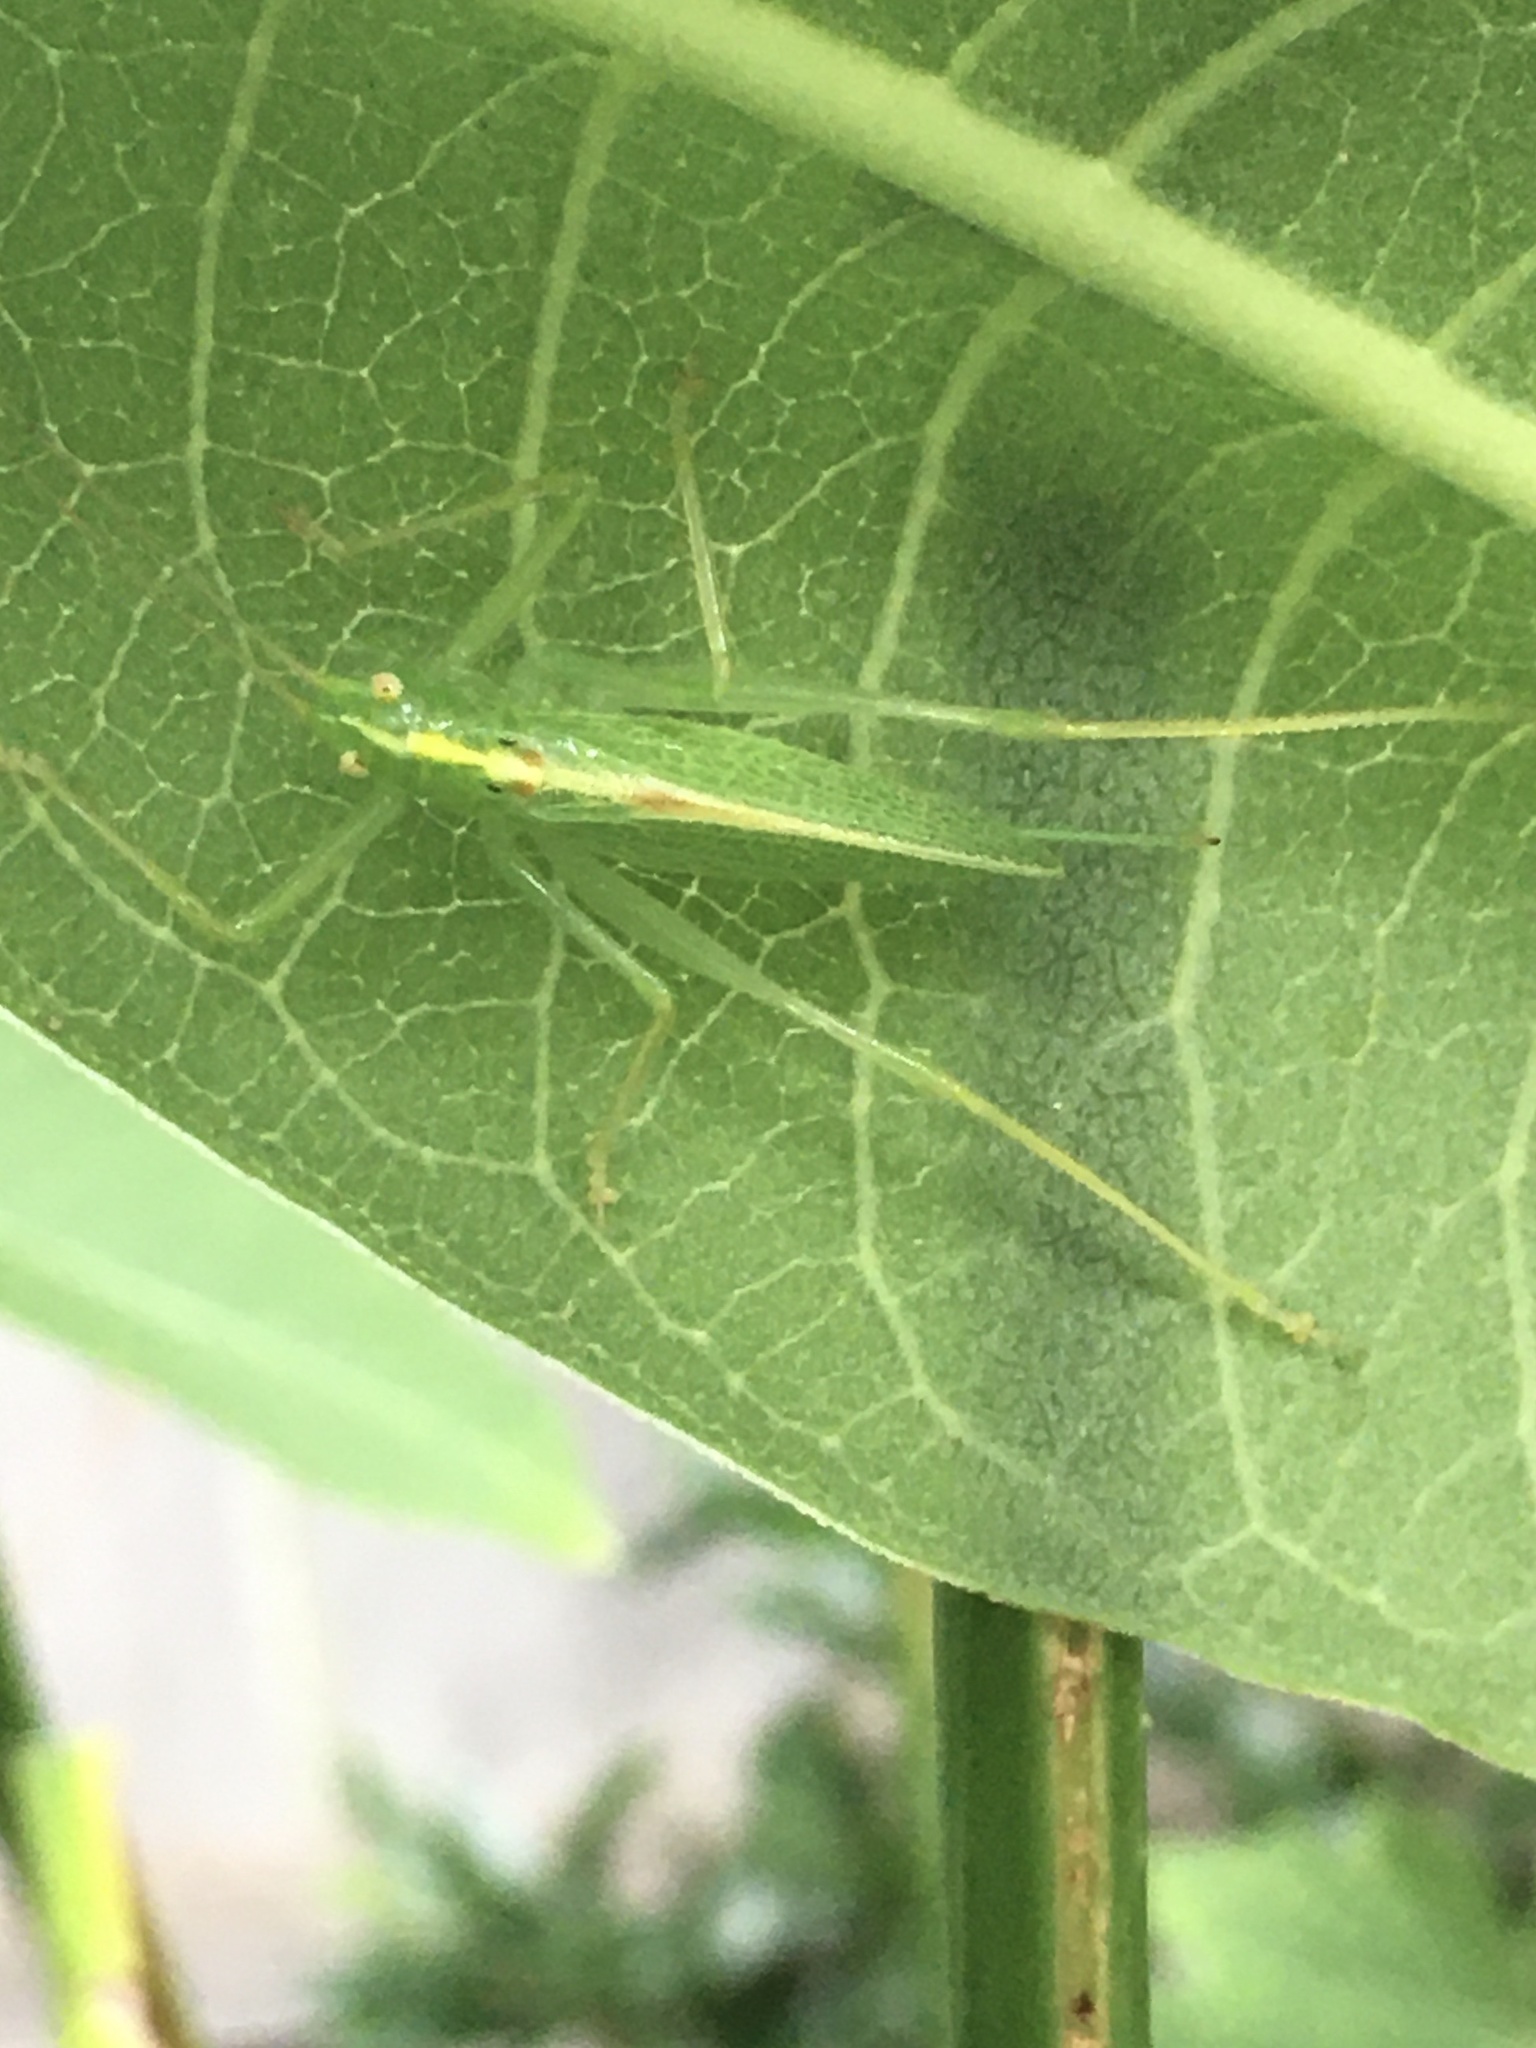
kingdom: Animalia
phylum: Arthropoda
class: Insecta
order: Orthoptera
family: Tettigoniidae
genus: Meconema
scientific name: Meconema thalassinum
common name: Oak bush-cricket
